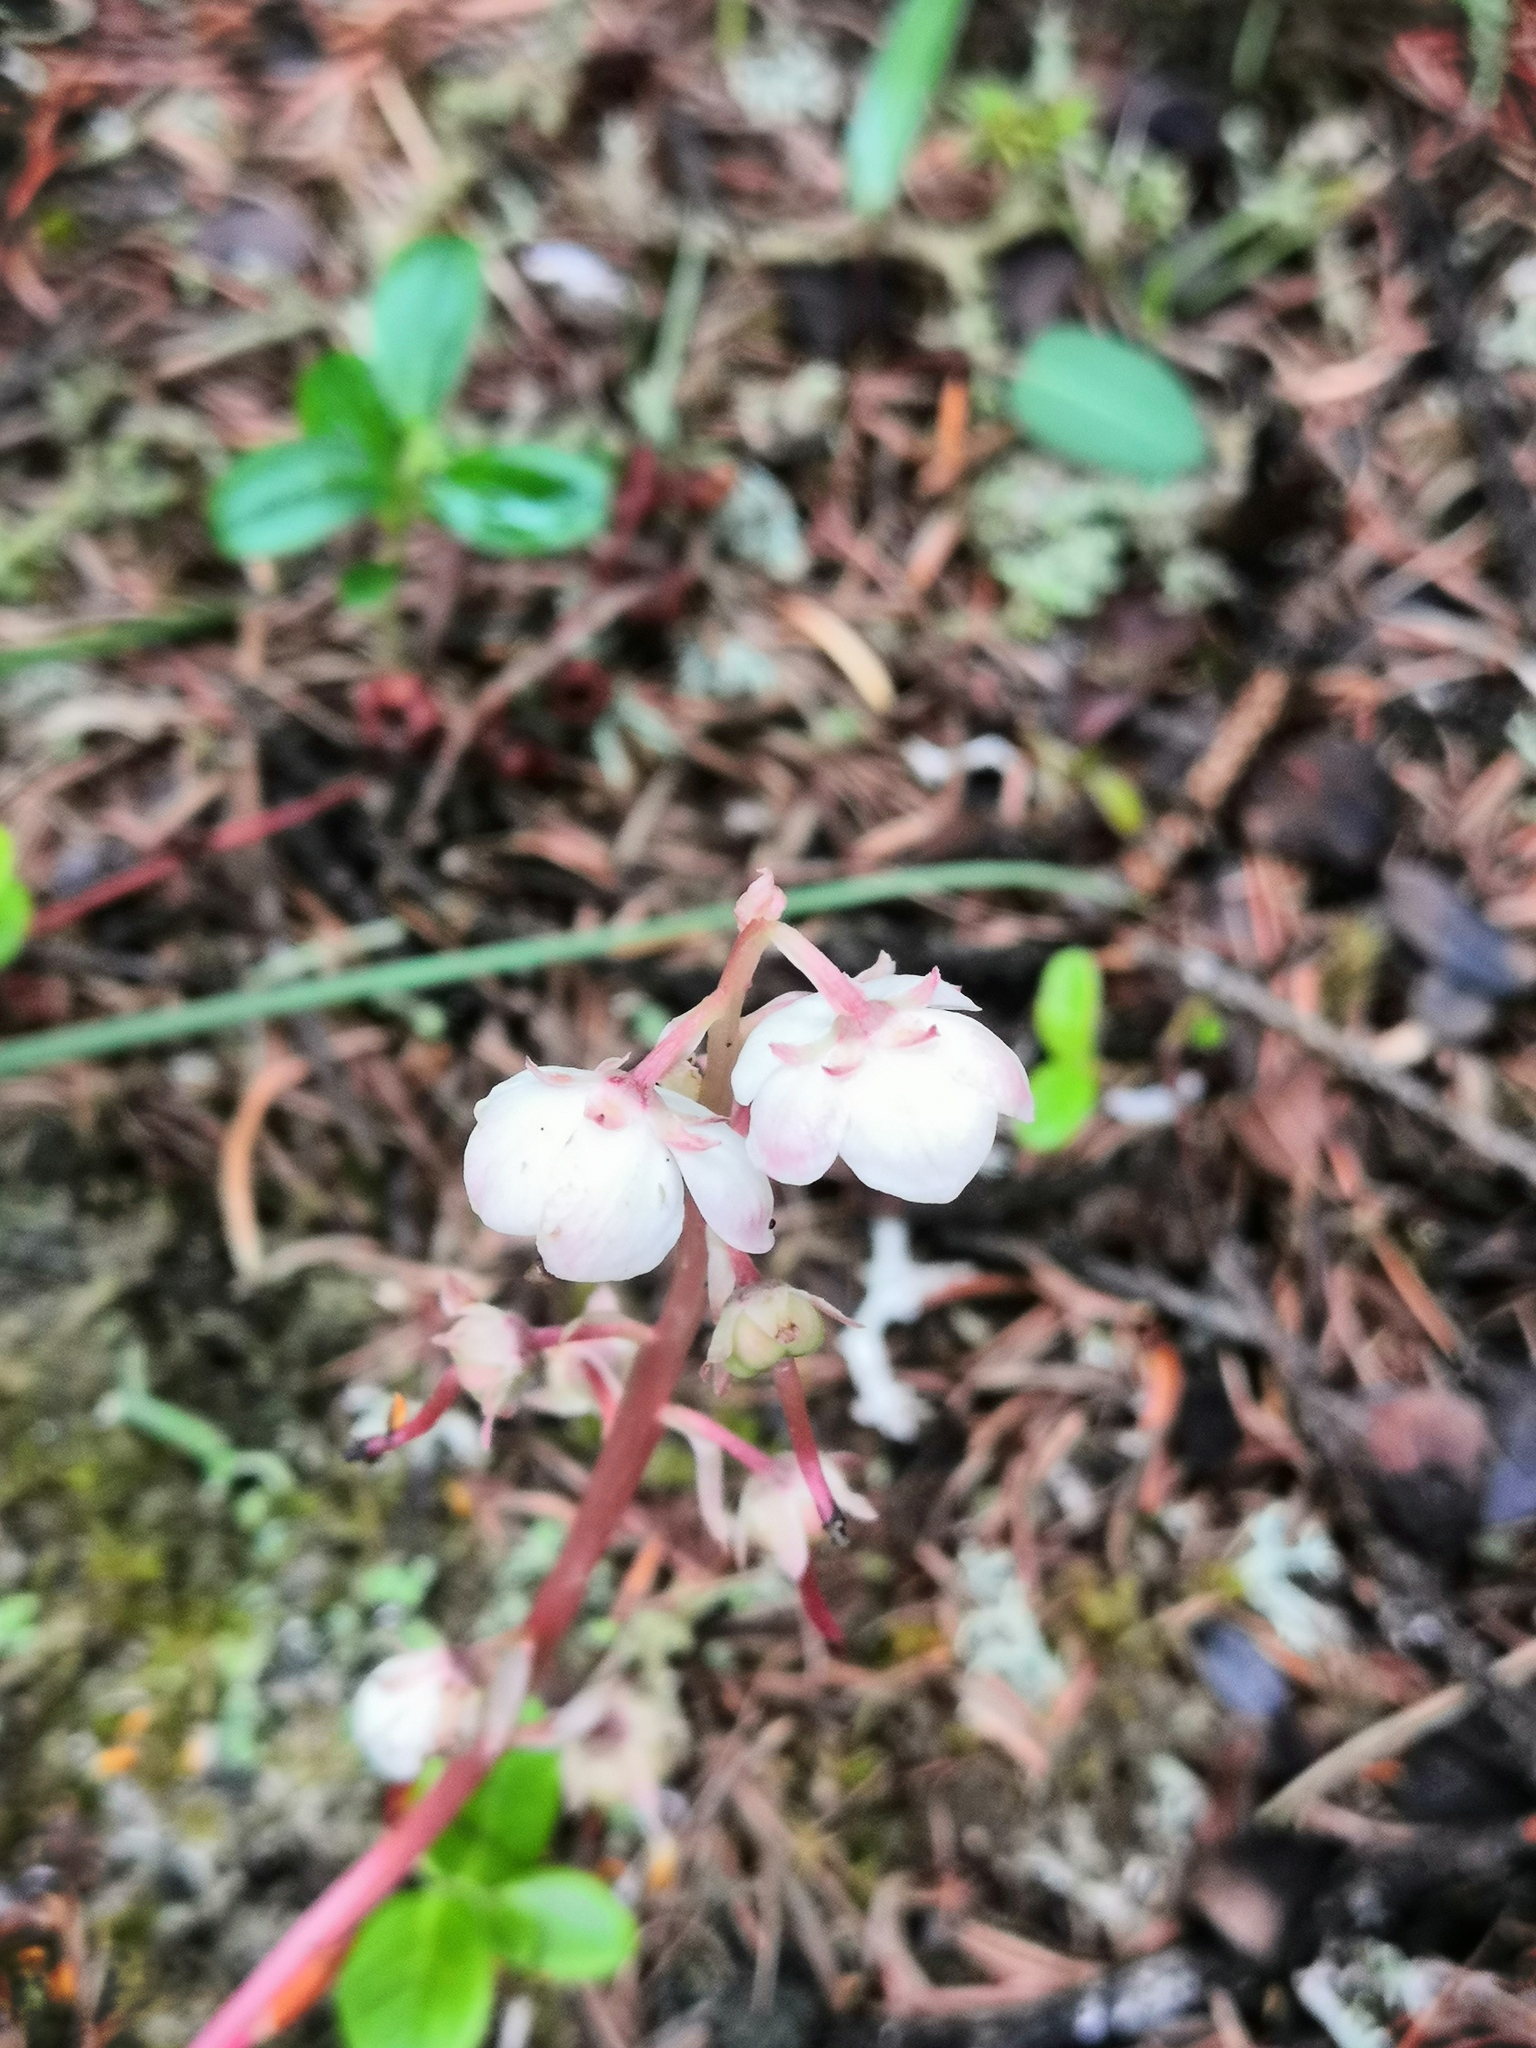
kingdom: Plantae
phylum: Tracheophyta
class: Magnoliopsida
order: Ericales
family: Ericaceae
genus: Pyrola
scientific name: Pyrola asarifolia
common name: Bog wintergreen
